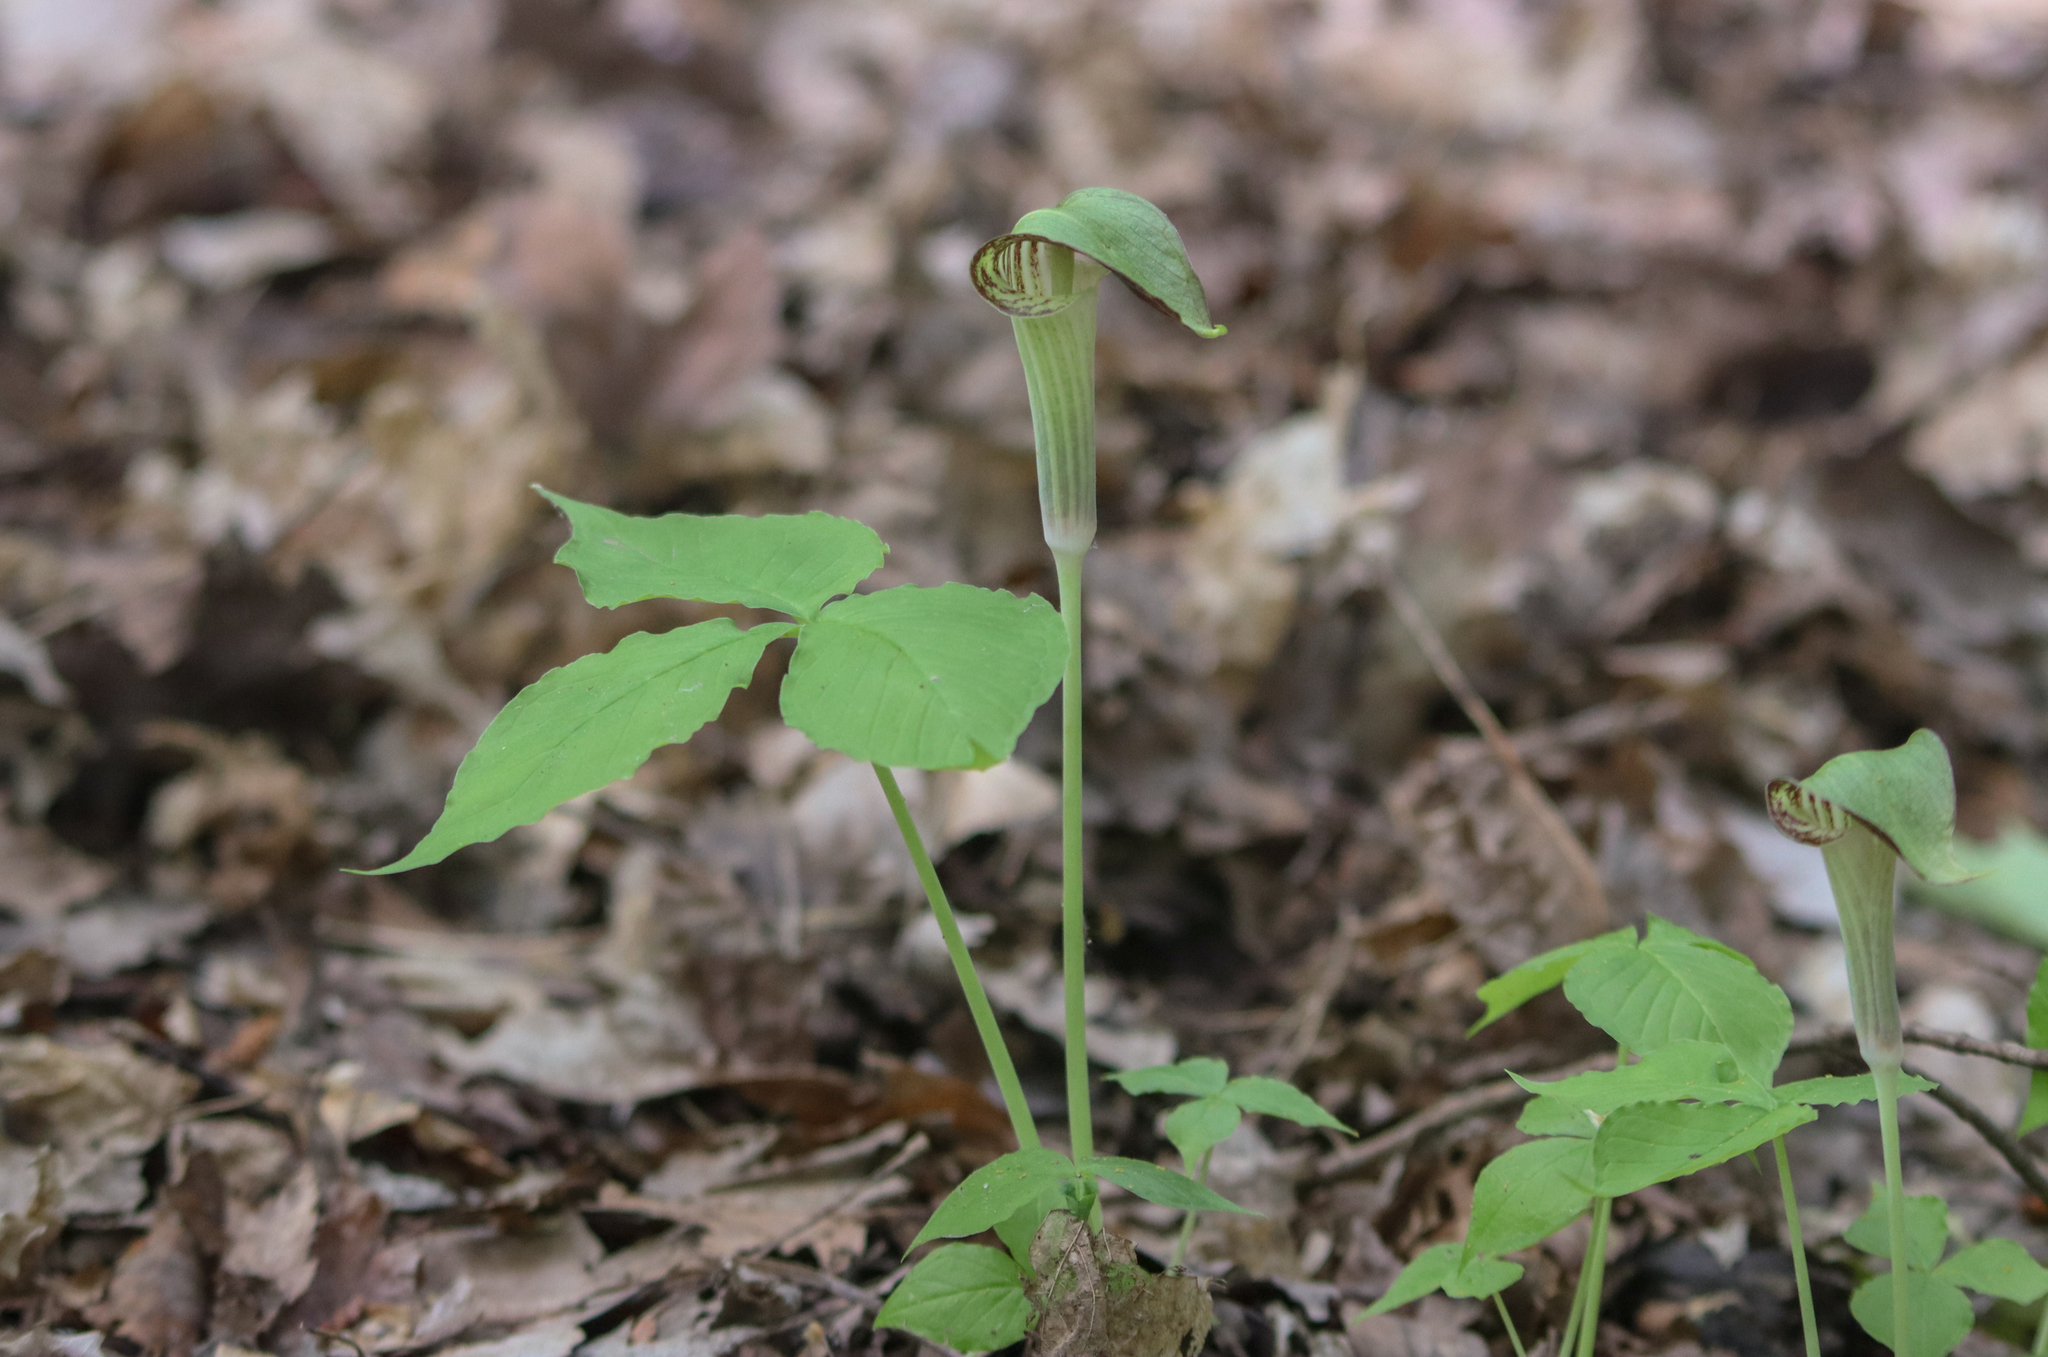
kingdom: Plantae
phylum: Tracheophyta
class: Liliopsida
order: Alismatales
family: Araceae
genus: Arisaema
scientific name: Arisaema triphyllum
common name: Jack-in-the-pulpit
